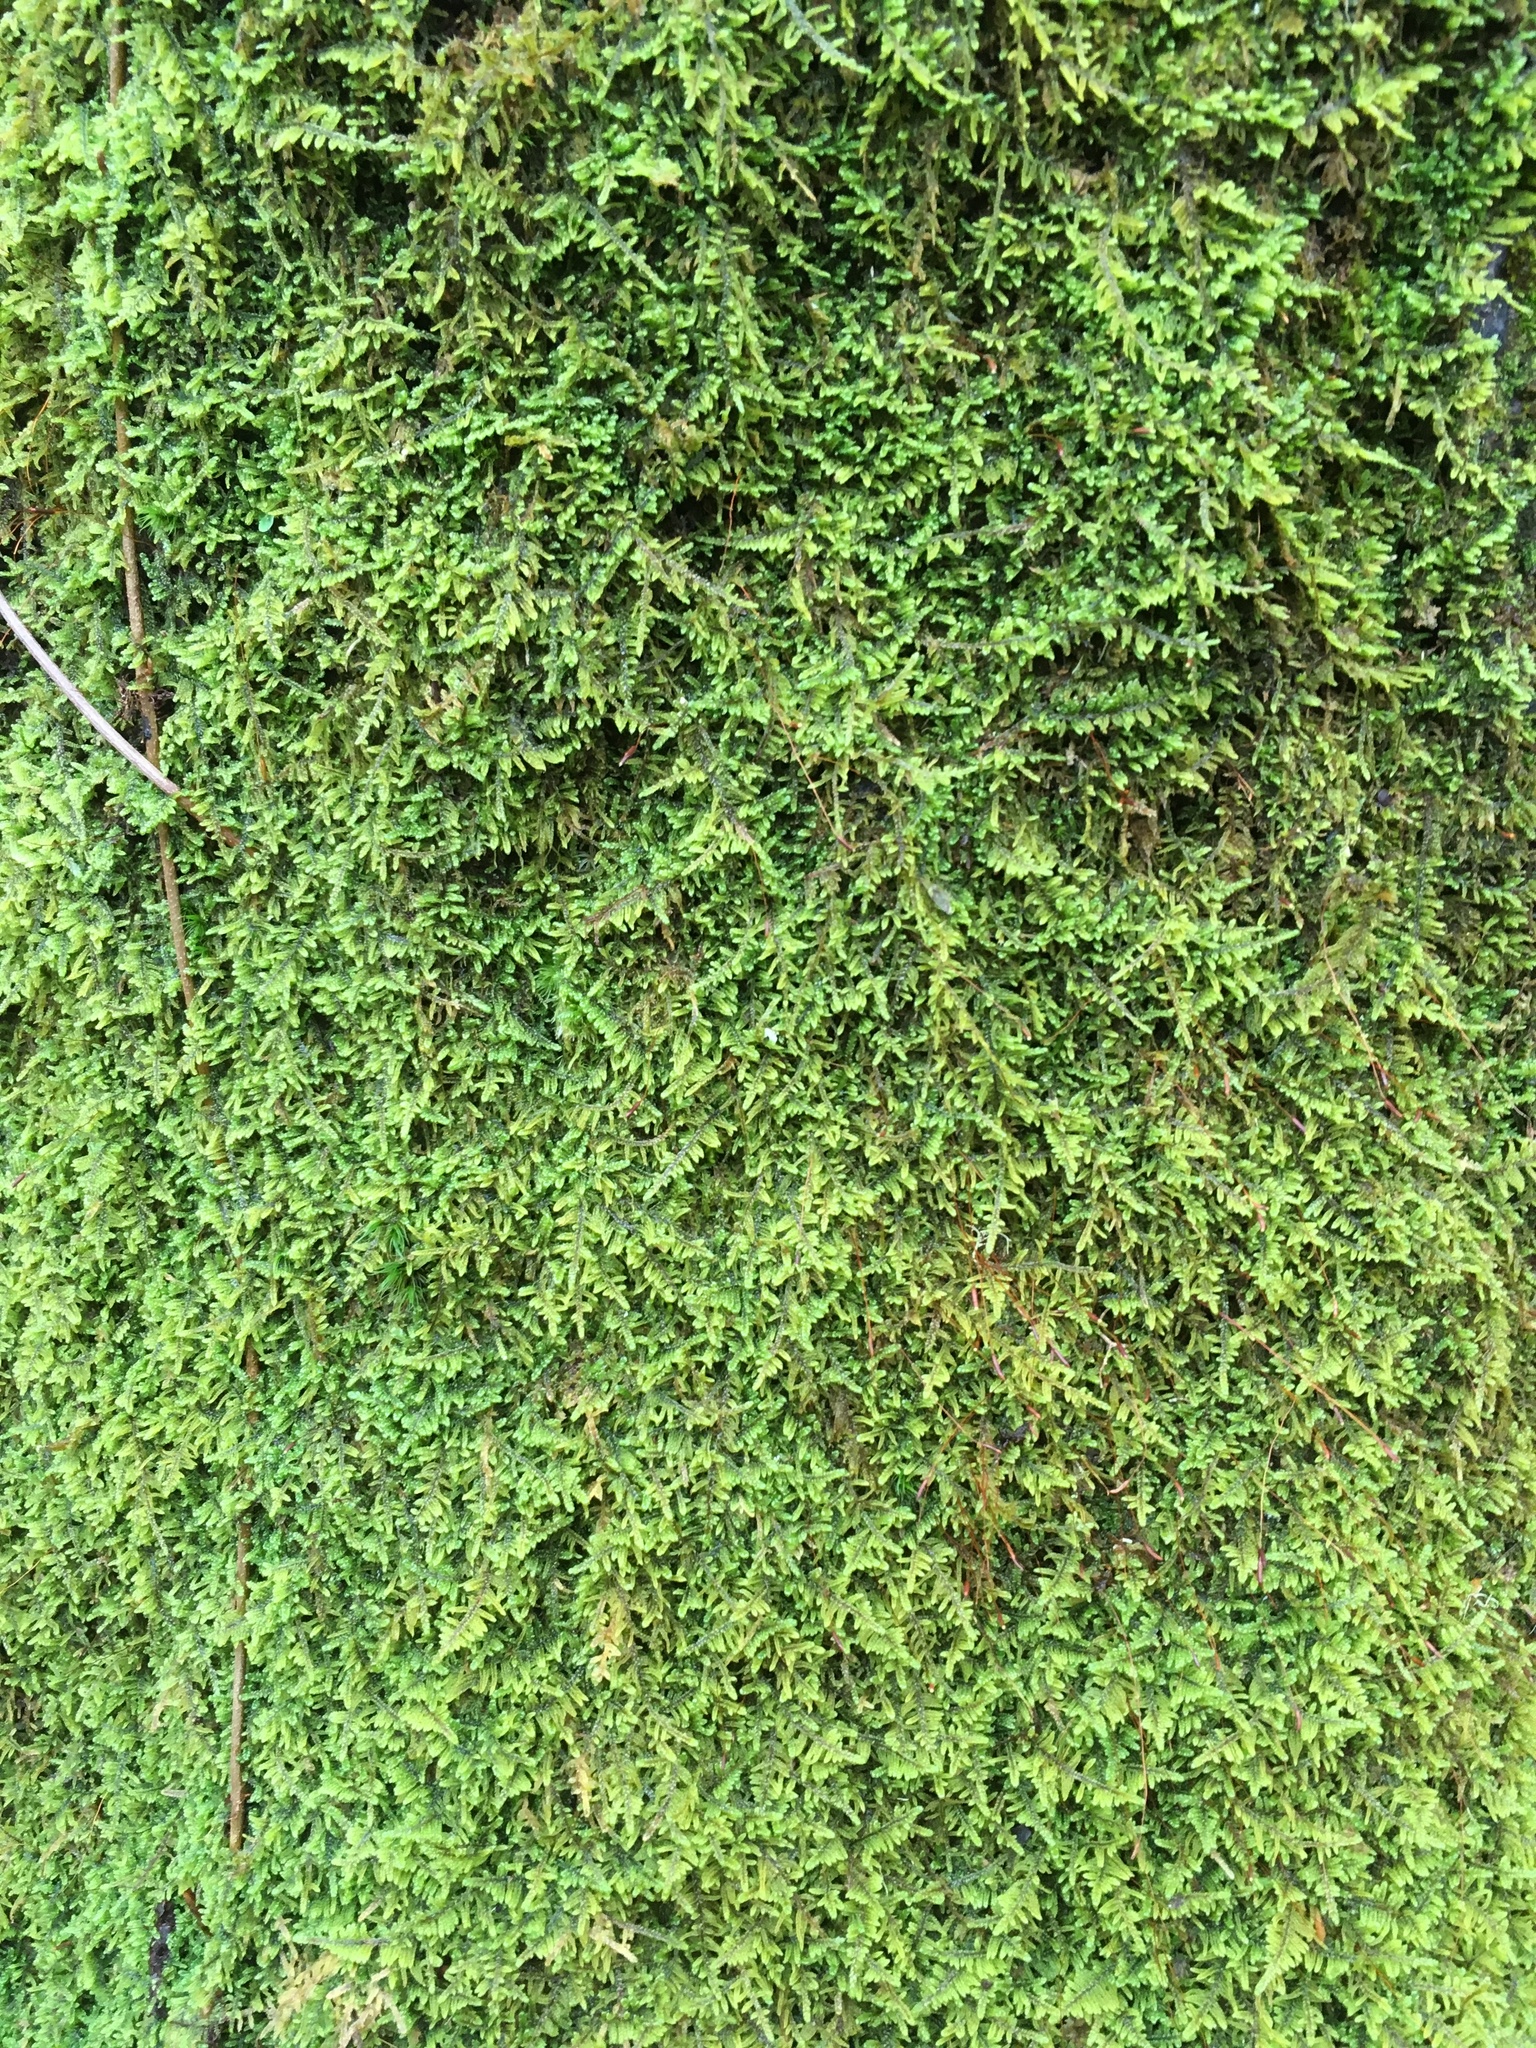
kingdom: Plantae
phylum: Bryophyta
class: Bryopsida
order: Hypnales
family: Callicladiaceae
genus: Callicladium
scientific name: Callicladium imponens
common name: Brocade moss
